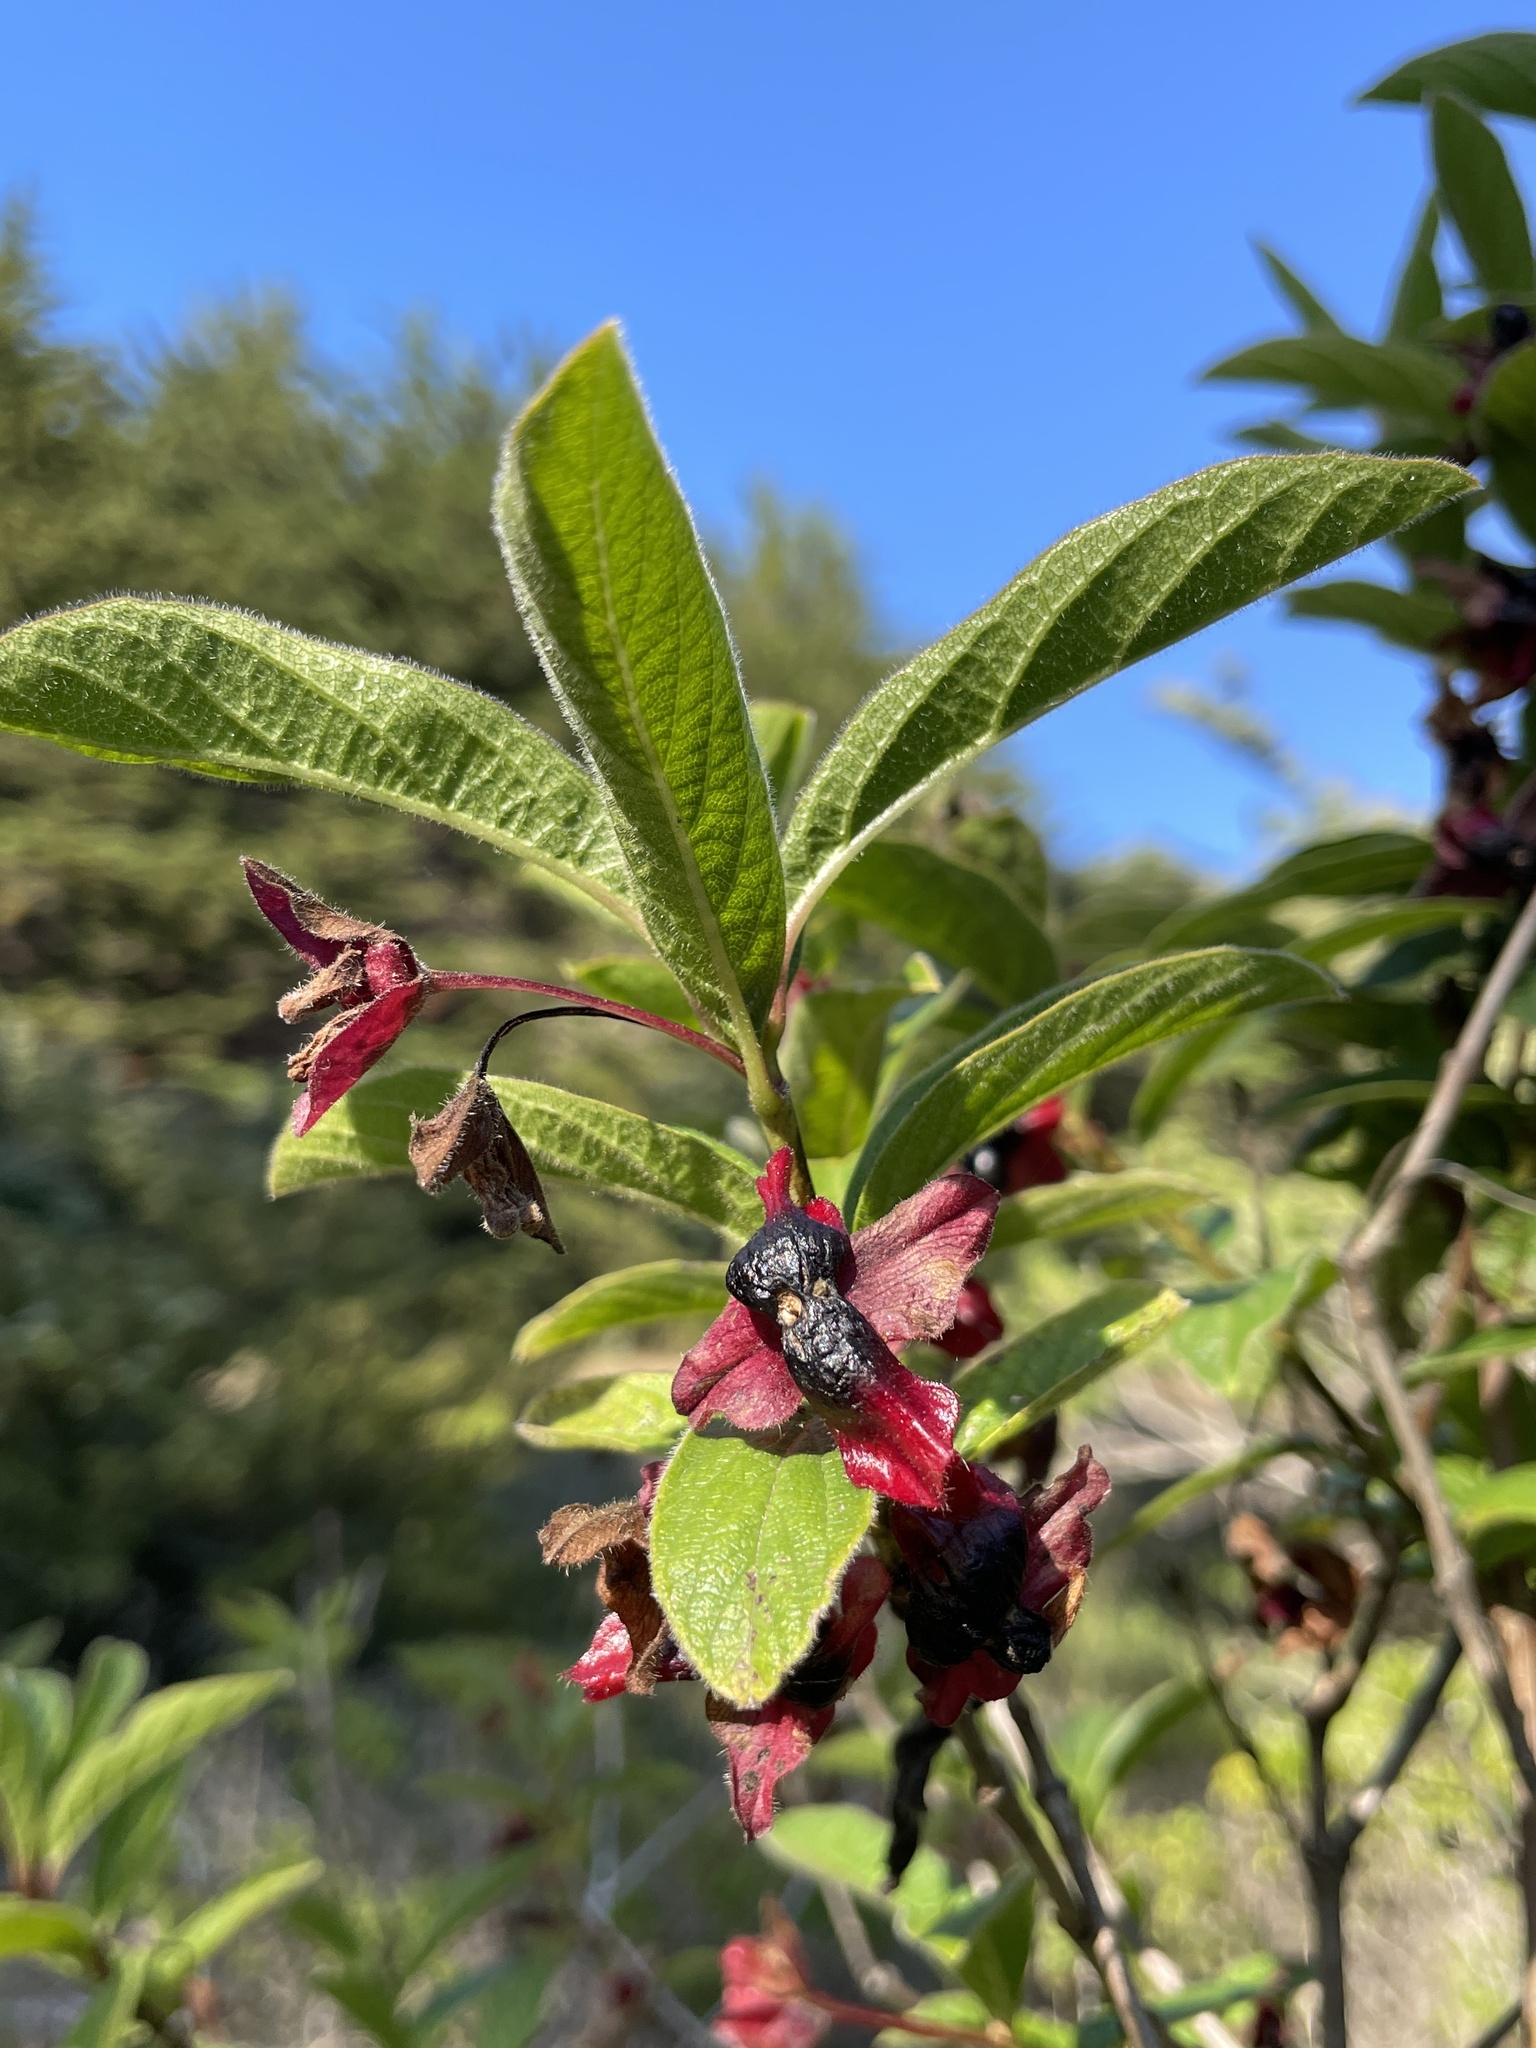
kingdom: Plantae
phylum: Tracheophyta
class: Magnoliopsida
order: Dipsacales
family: Caprifoliaceae
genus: Lonicera
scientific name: Lonicera involucrata
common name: Californian honeysuckle
